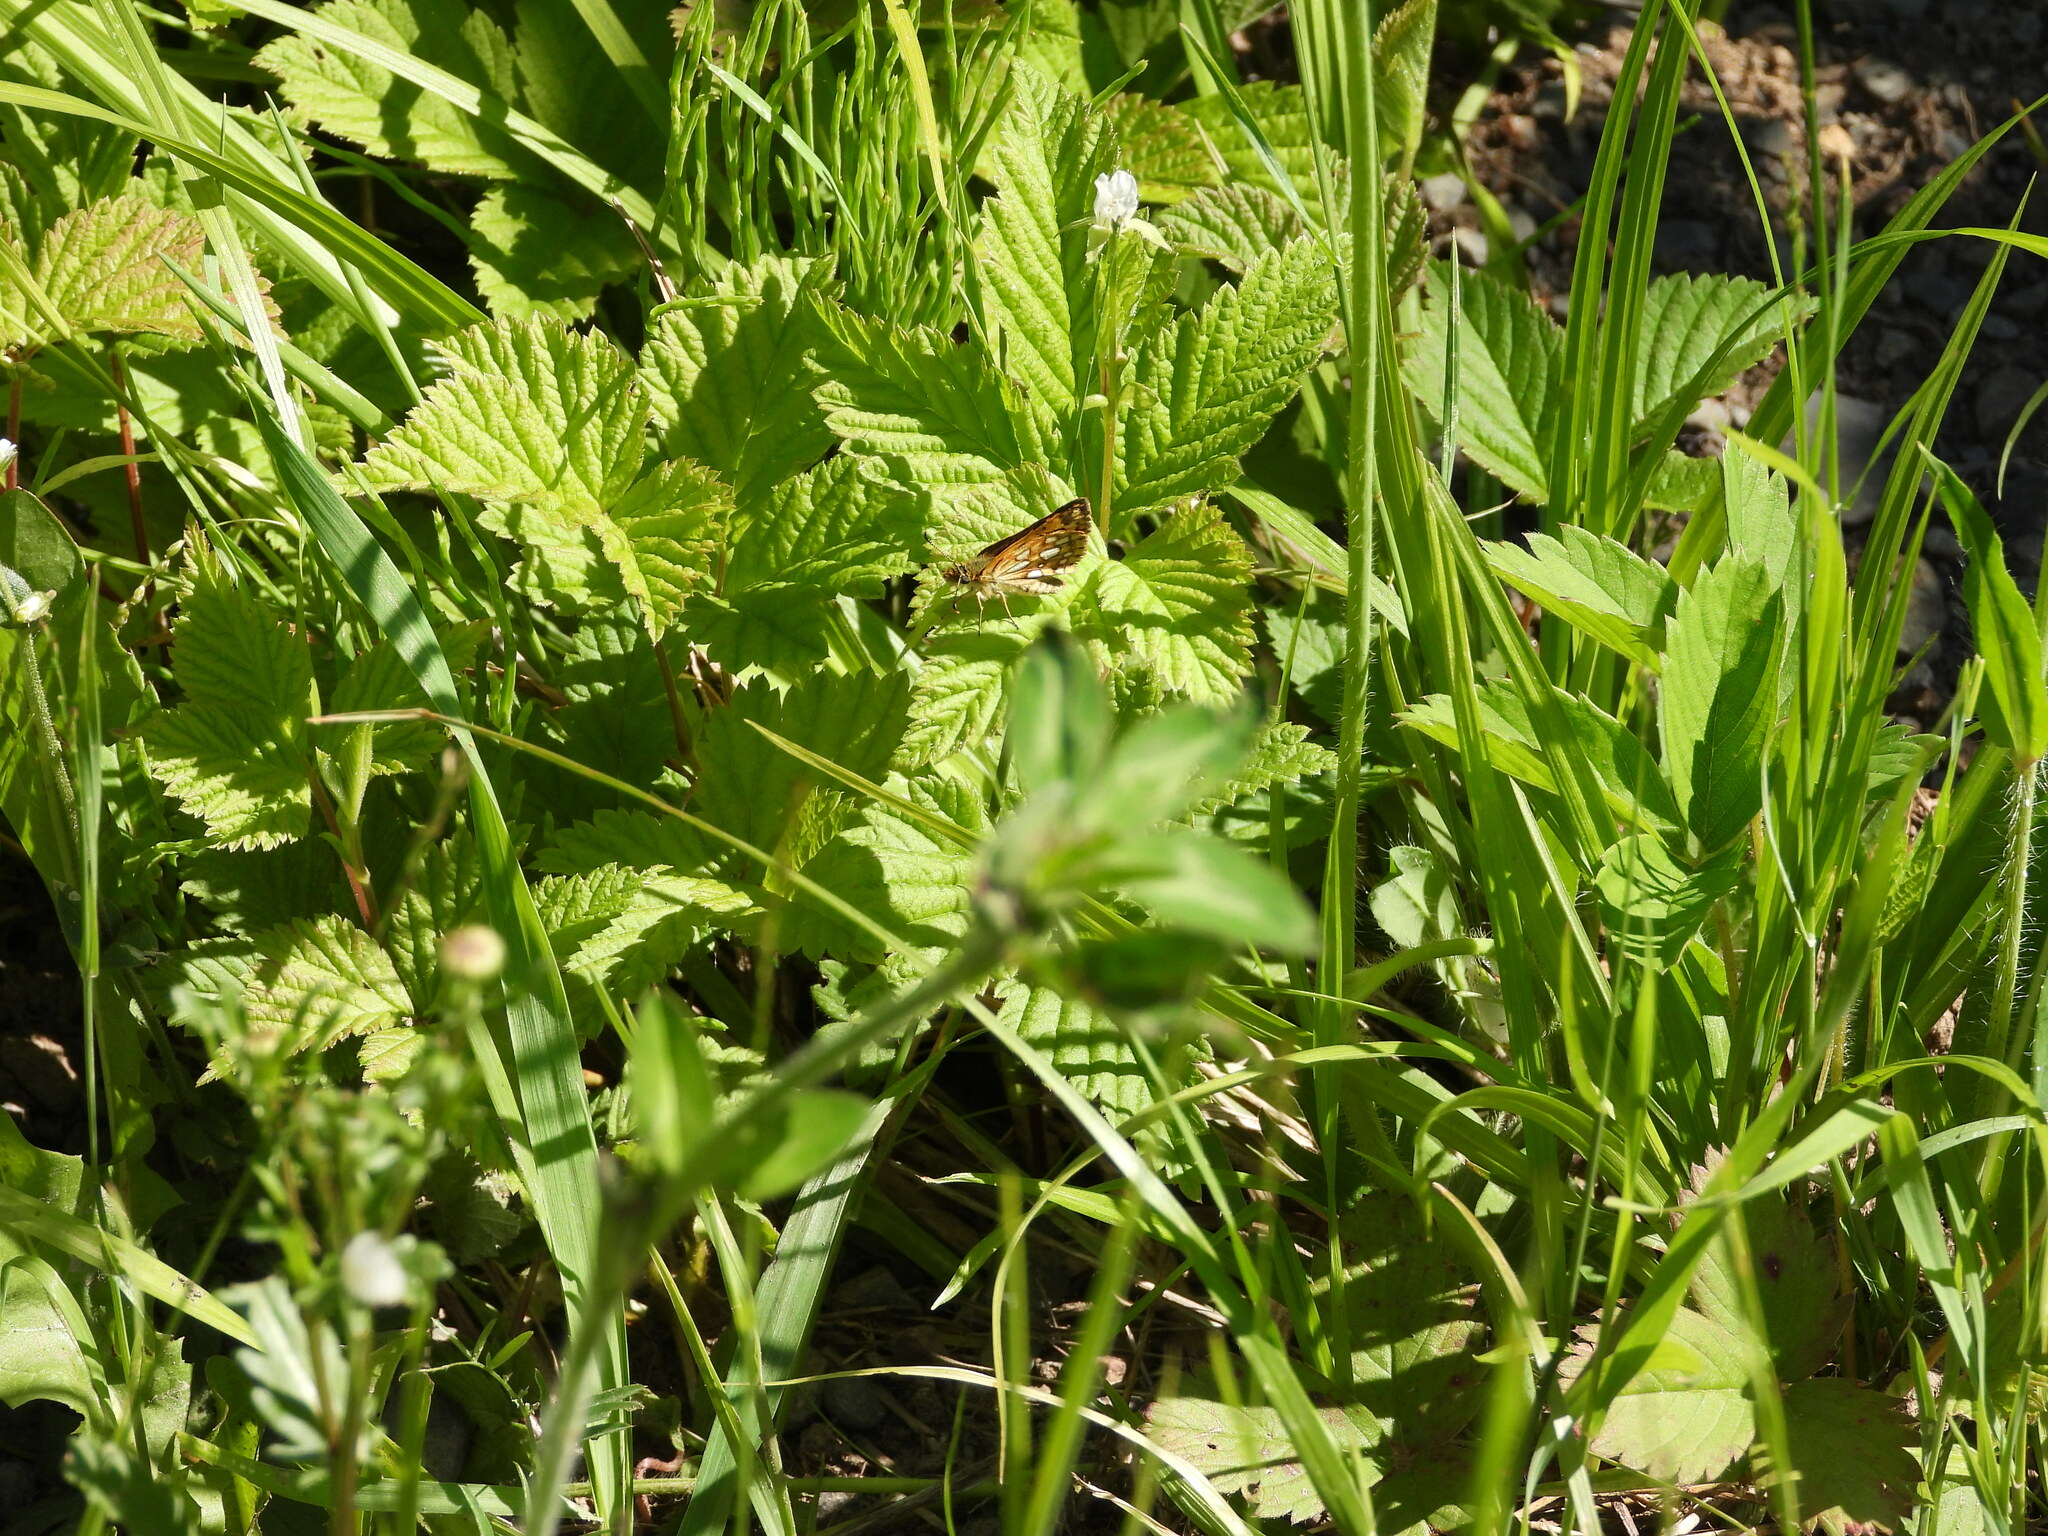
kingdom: Animalia
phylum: Arthropoda
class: Insecta
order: Lepidoptera
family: Hesperiidae
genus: Carterocephalus
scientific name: Carterocephalus mandan
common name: Arctic skipperling
